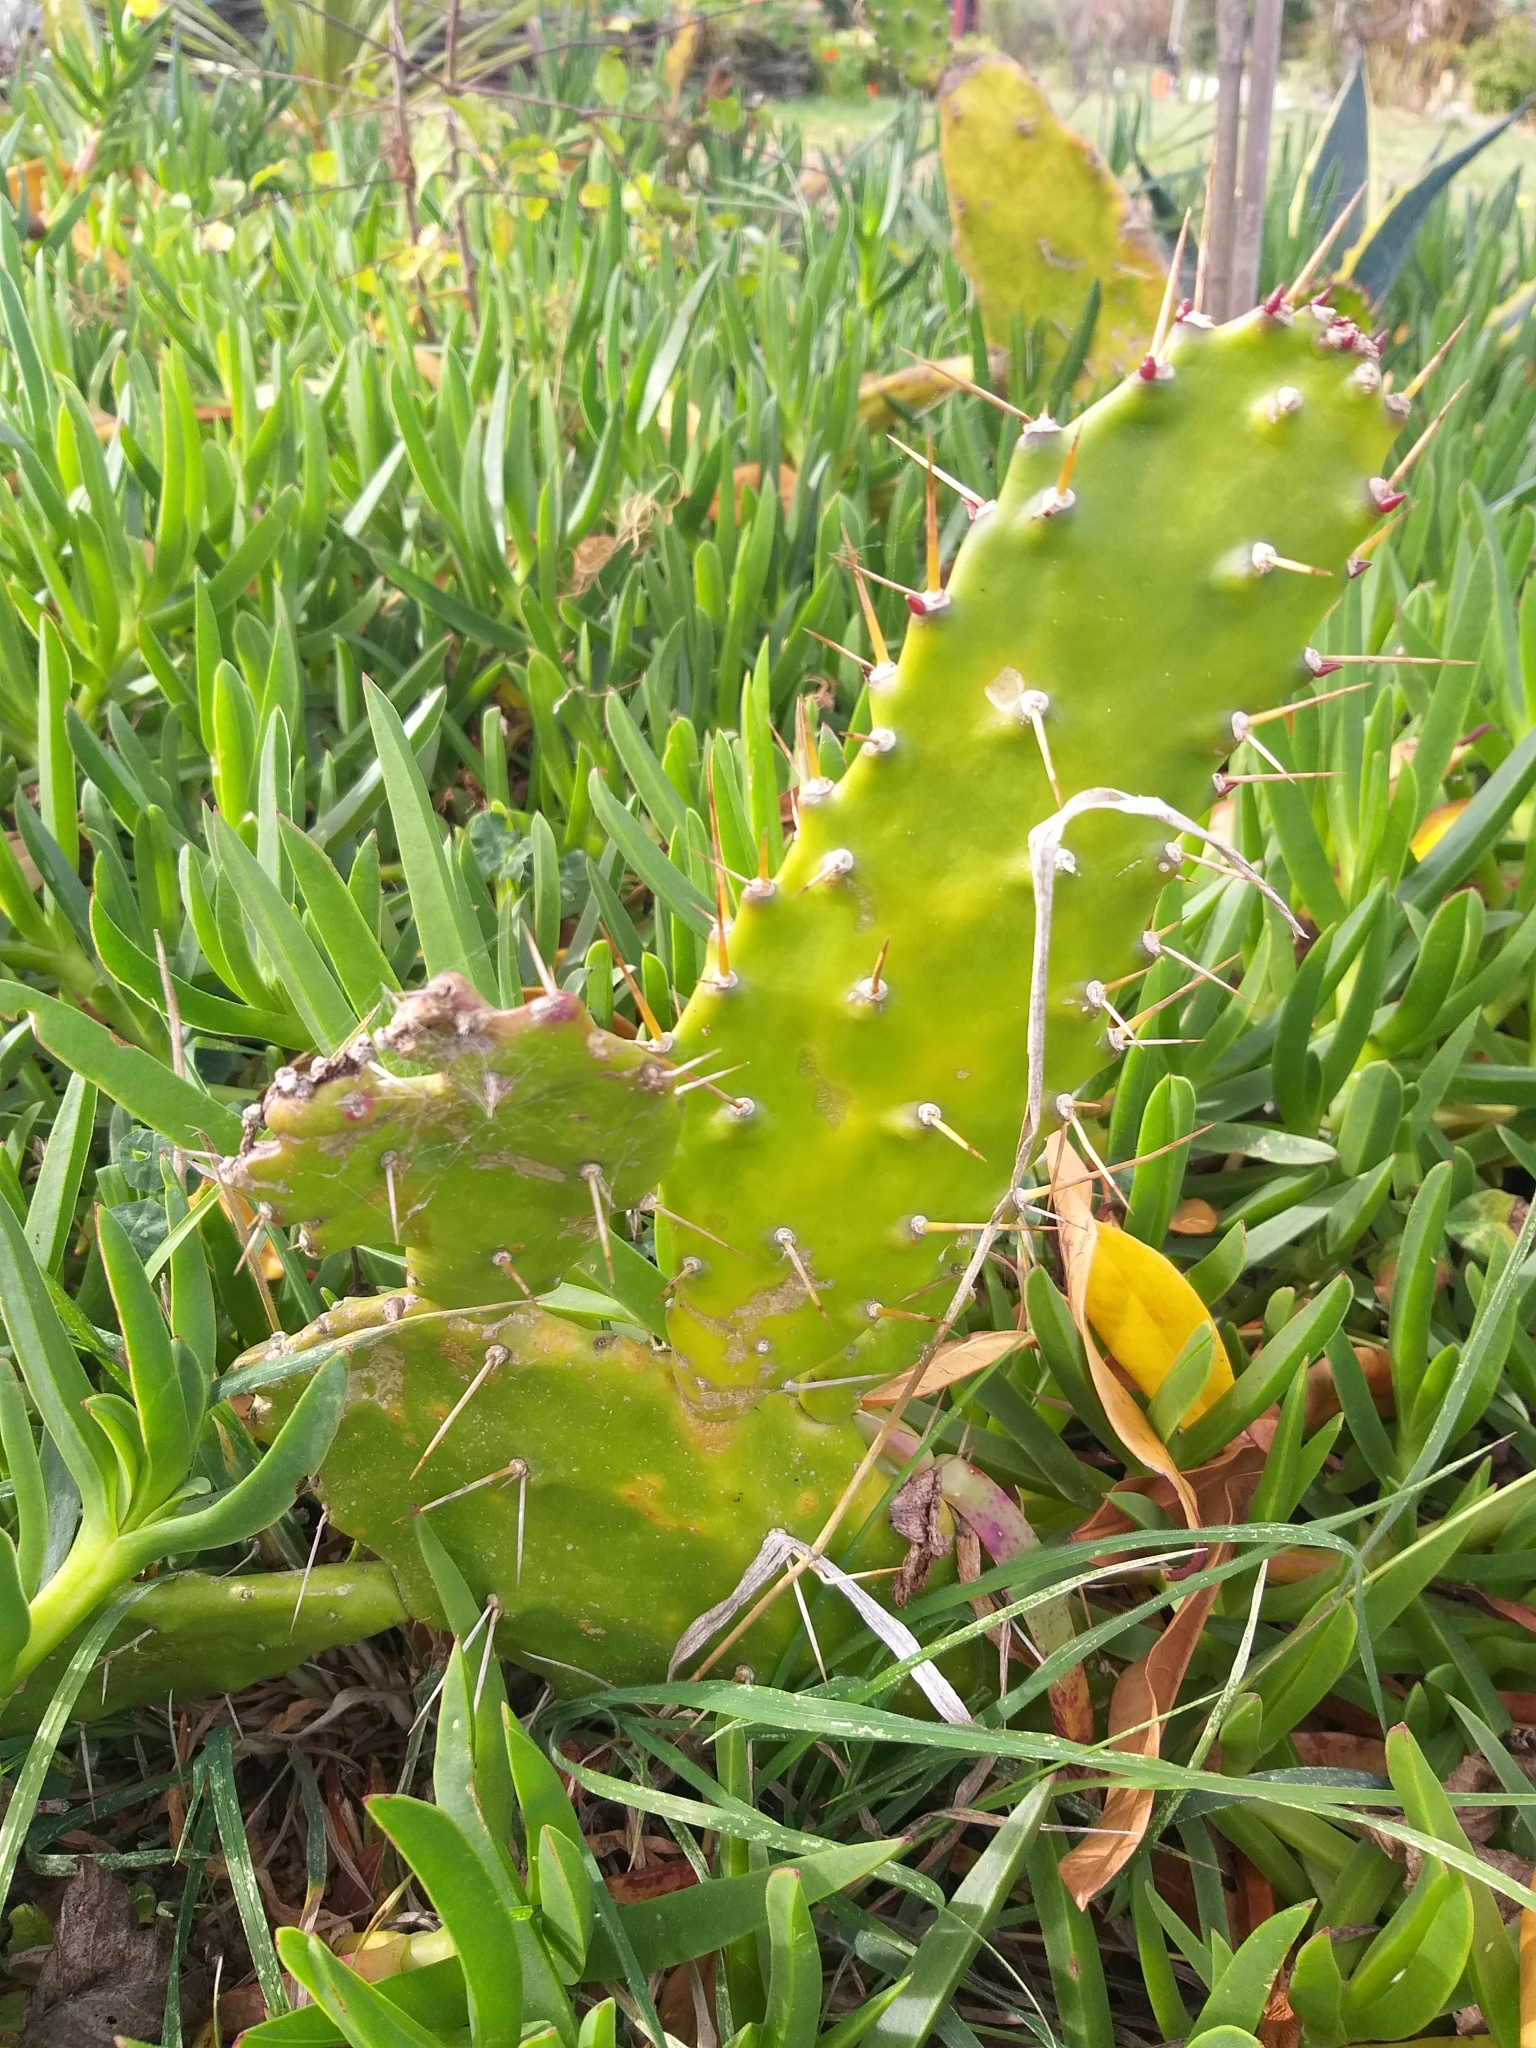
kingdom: Plantae
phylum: Tracheophyta
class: Magnoliopsida
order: Caryophyllales
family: Cactaceae
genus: Opuntia
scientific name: Opuntia monacantha
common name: Common pricklypear
